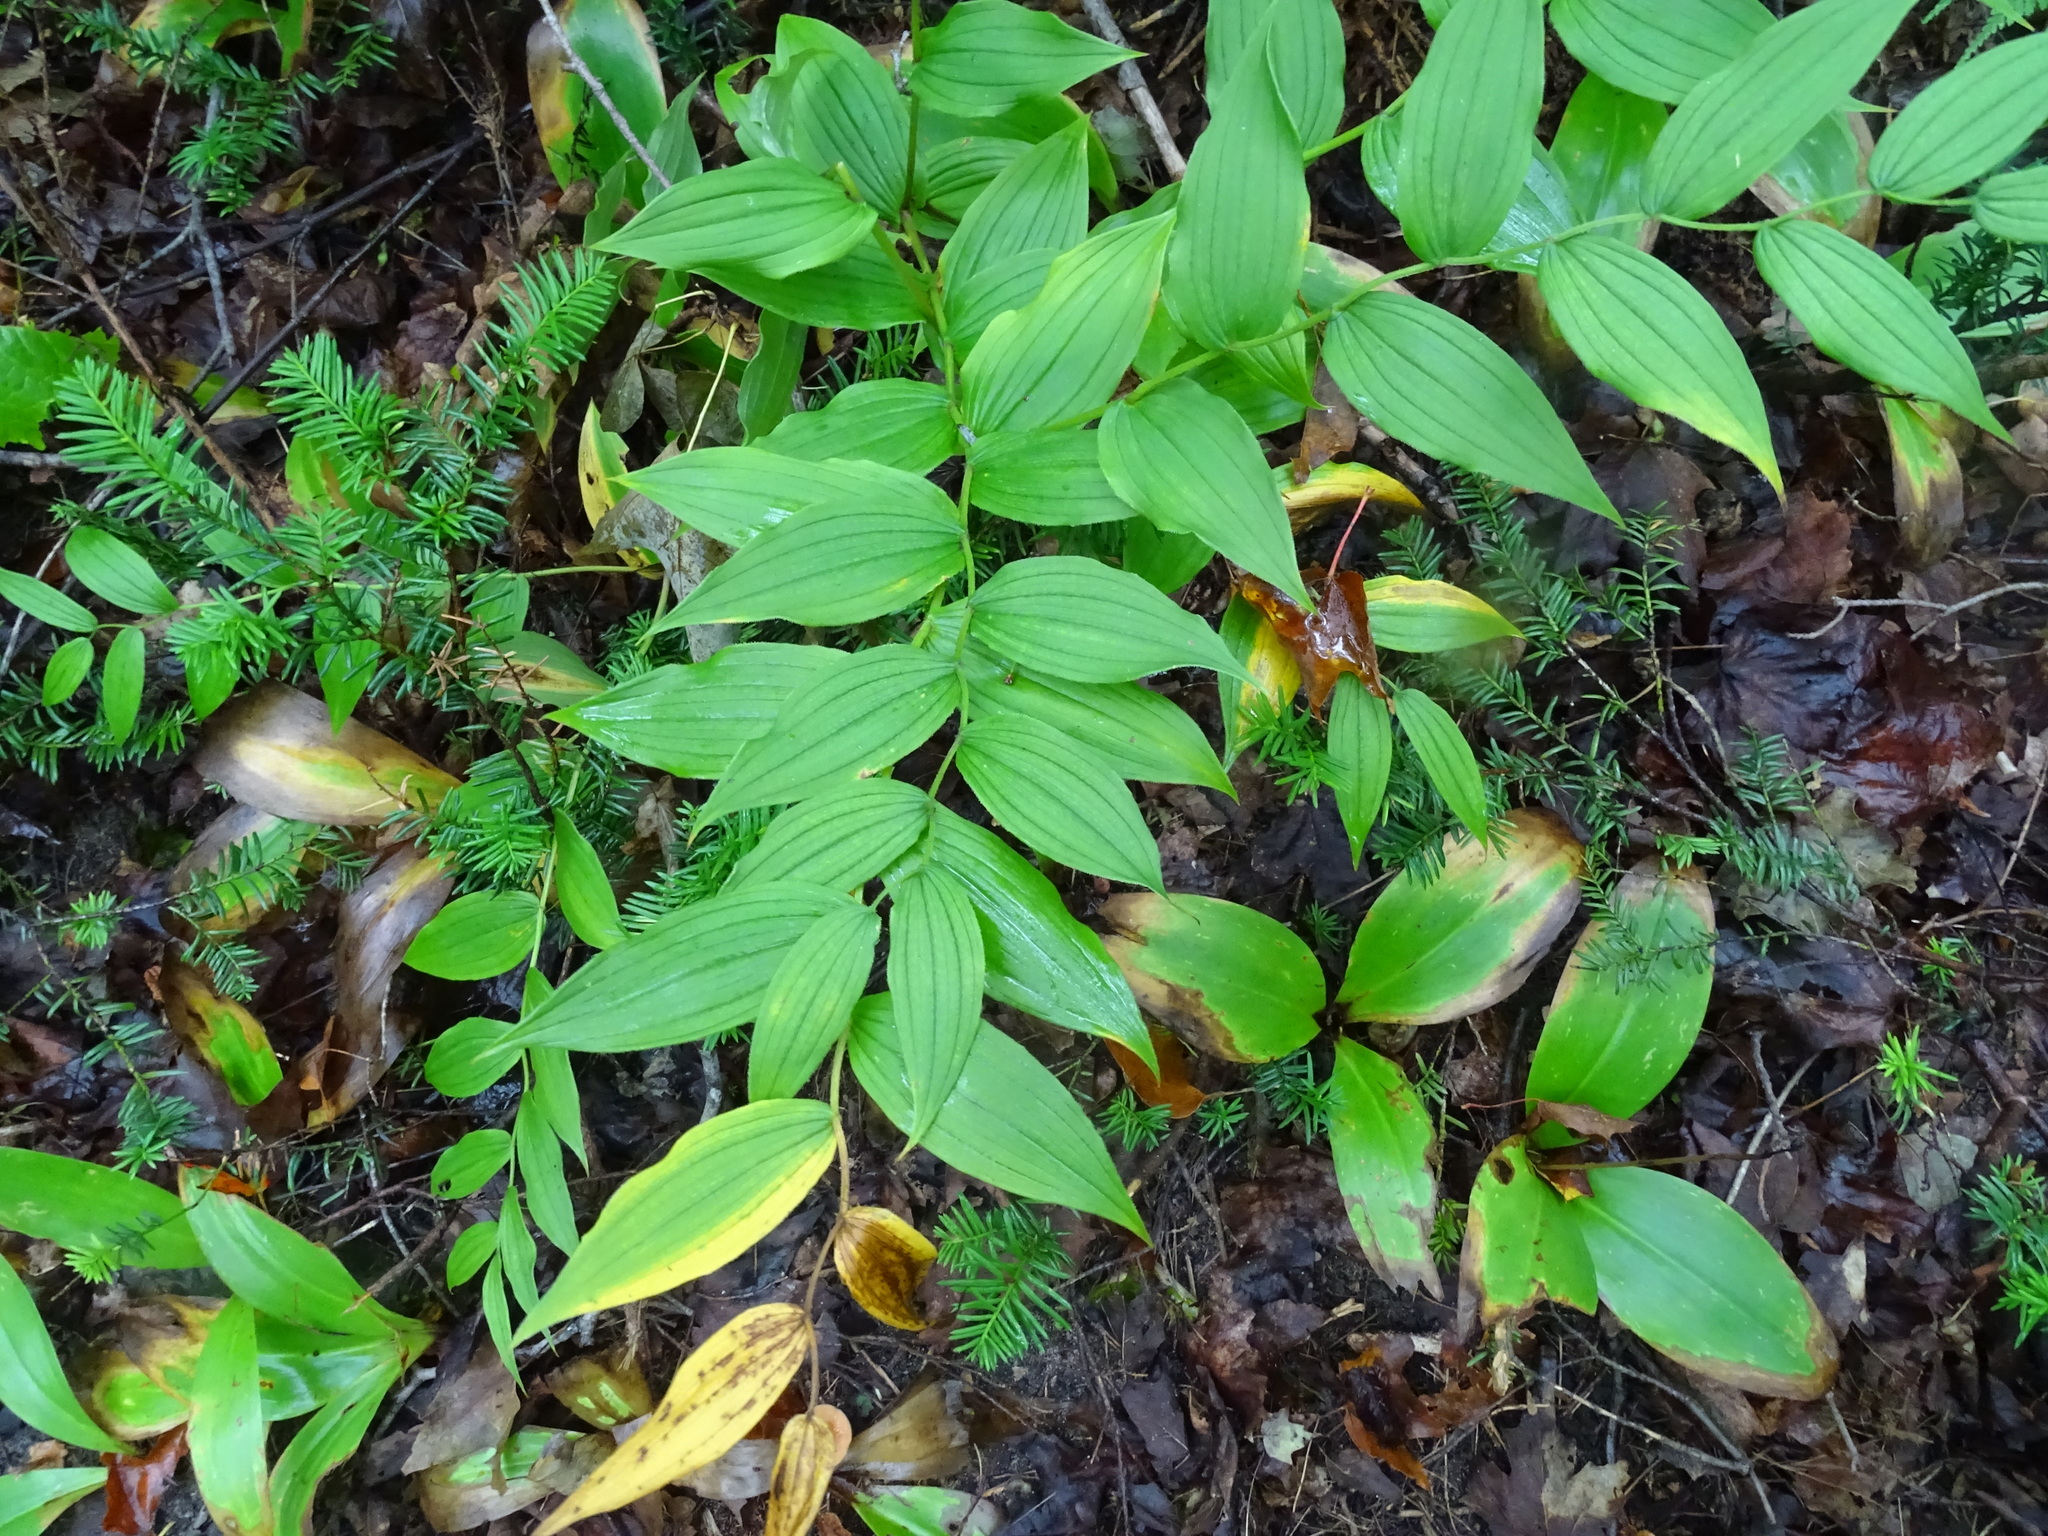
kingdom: Plantae
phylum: Tracheophyta
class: Liliopsida
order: Liliales
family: Liliaceae
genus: Streptopus
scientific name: Streptopus lanceolatus
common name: Rose mandarin
